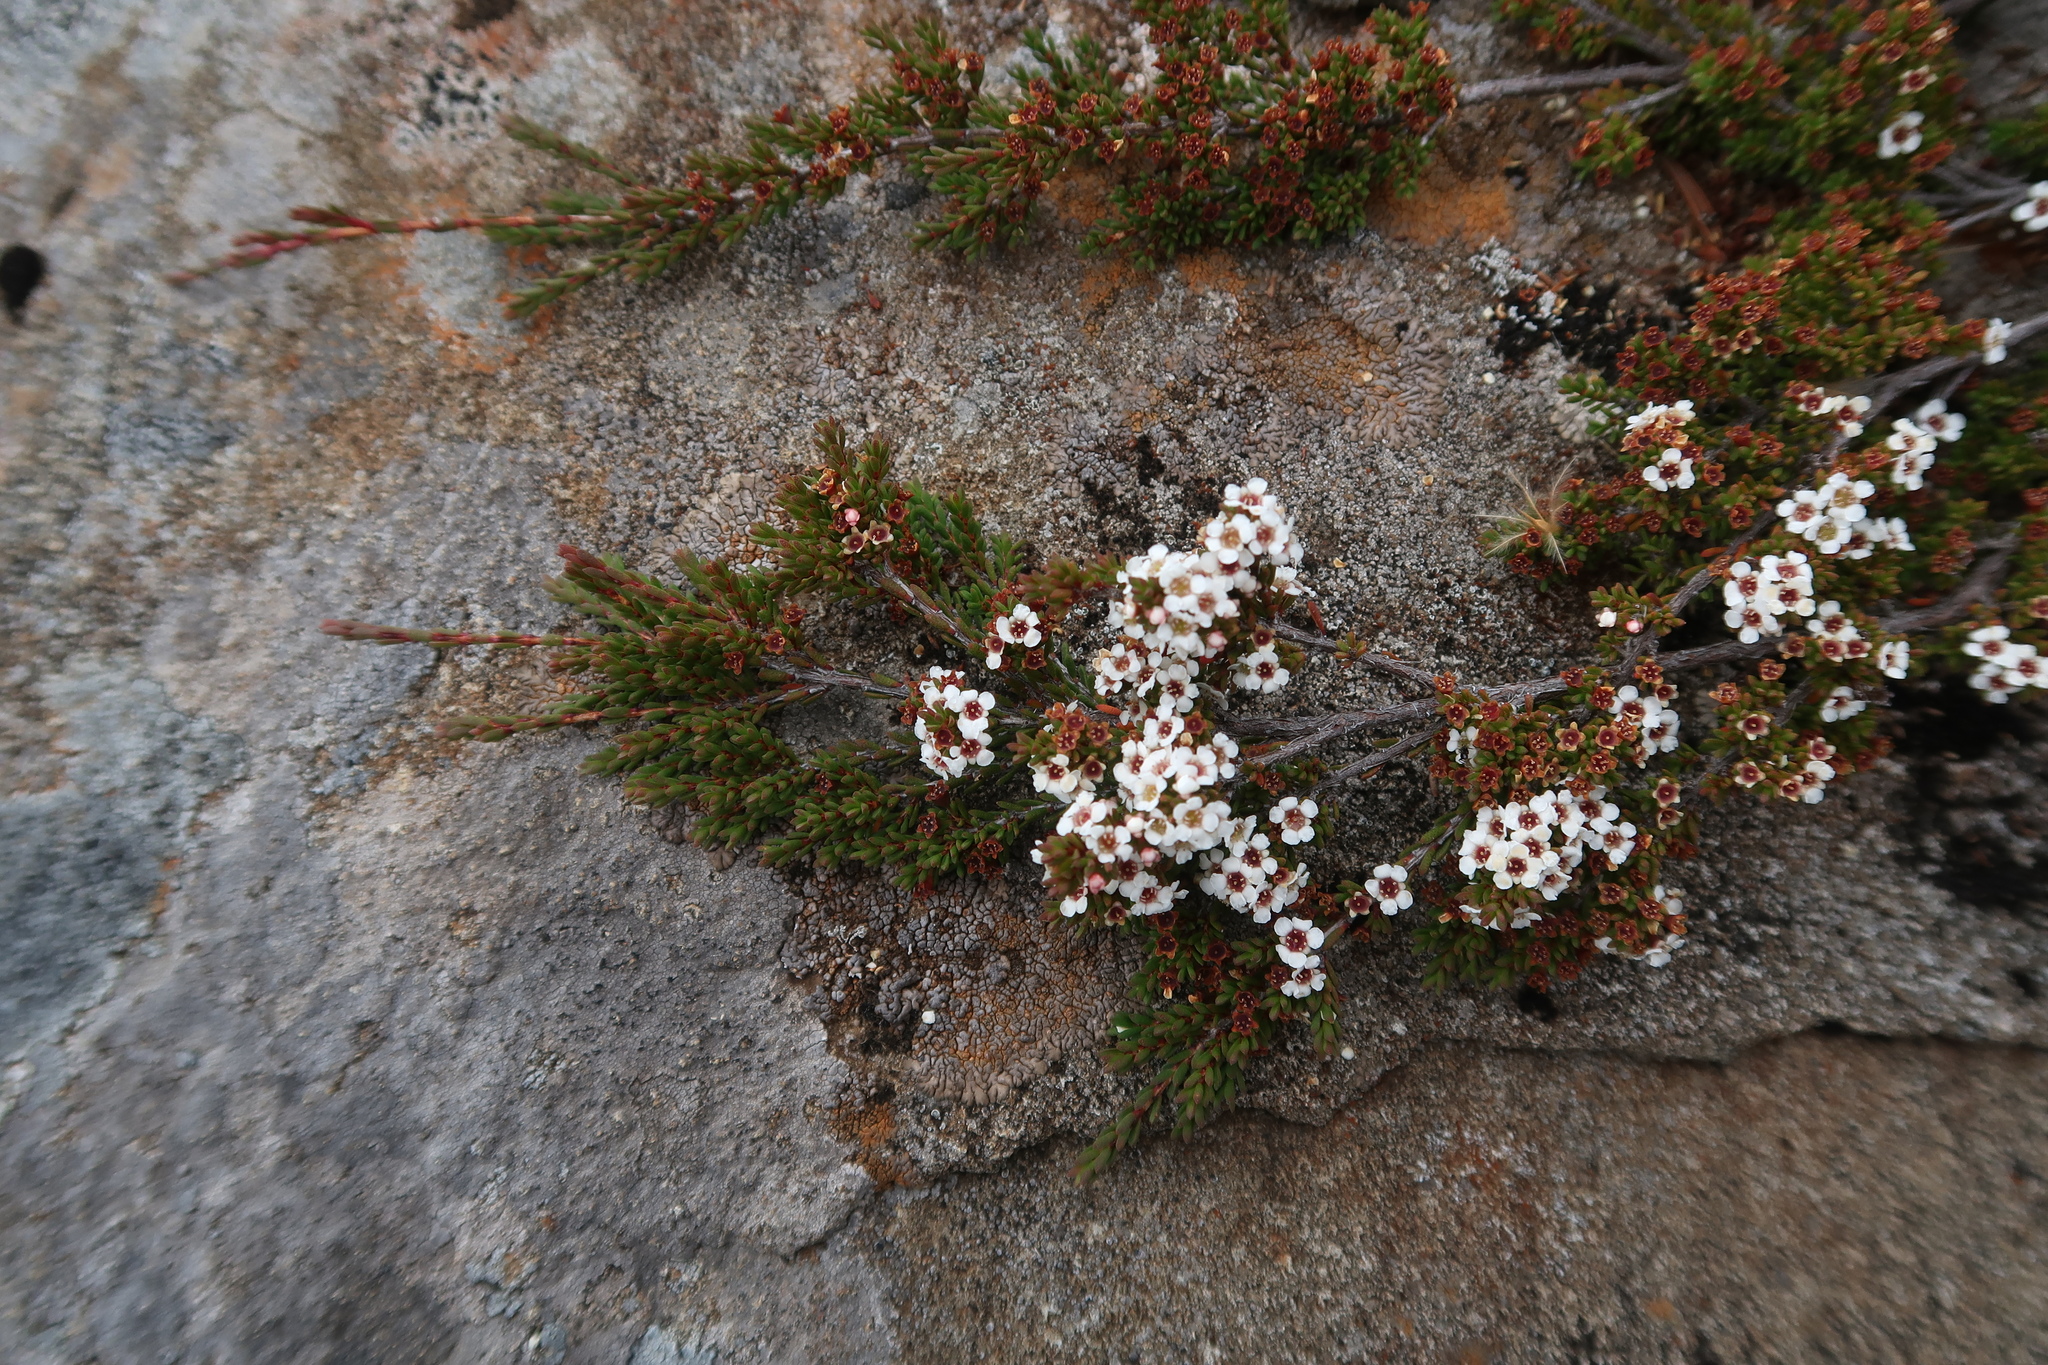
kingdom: Plantae
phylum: Tracheophyta
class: Magnoliopsida
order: Myrtales
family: Myrtaceae
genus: Baeckea
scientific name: Baeckea gunniana
